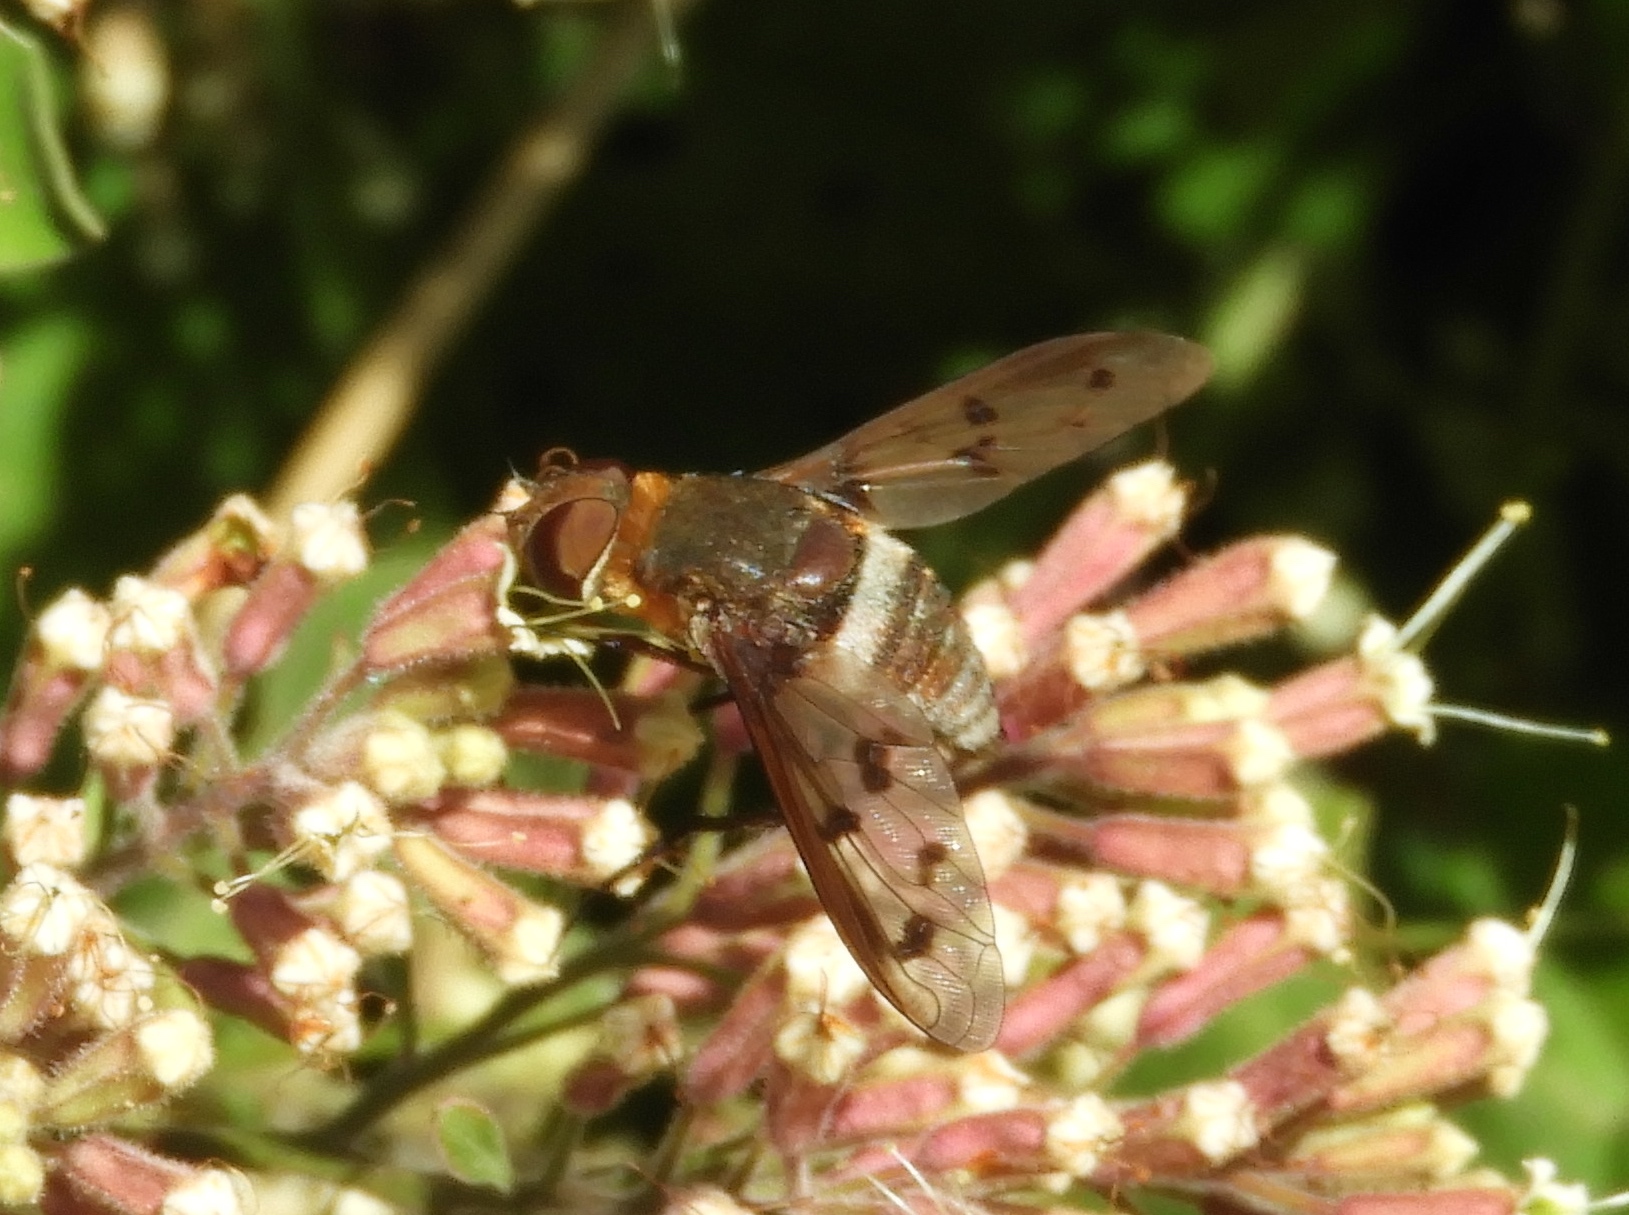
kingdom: Animalia
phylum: Arthropoda
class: Insecta
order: Diptera
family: Bombyliidae
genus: Nyia
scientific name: Nyia
